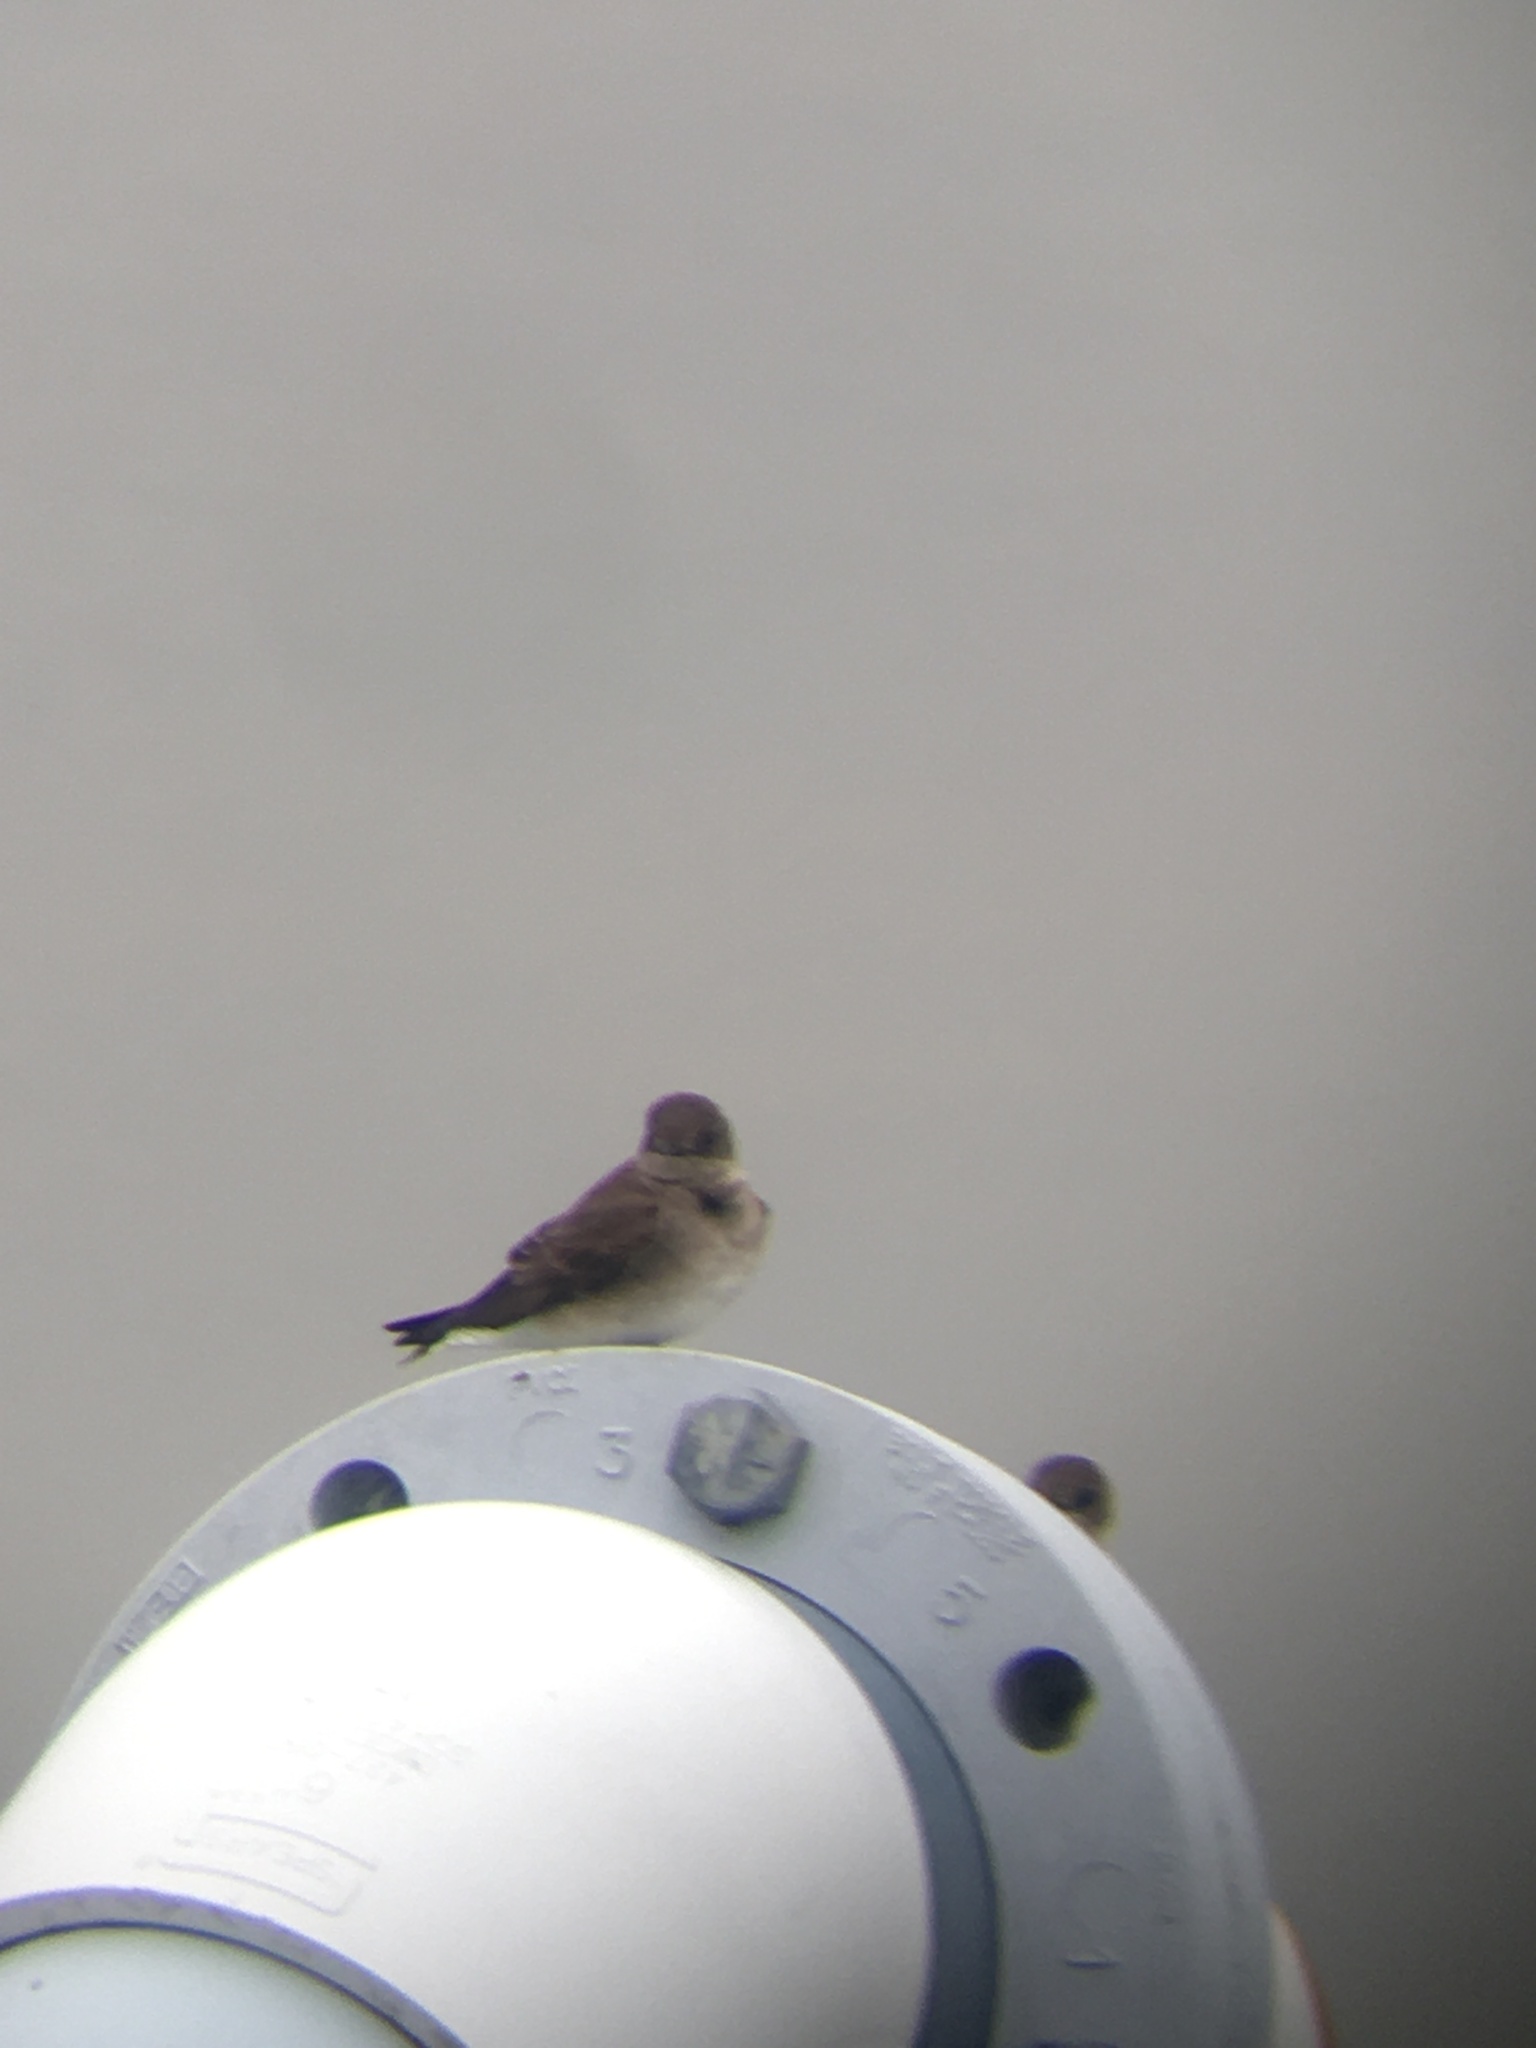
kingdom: Animalia
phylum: Chordata
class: Aves
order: Passeriformes
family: Hirundinidae
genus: Stelgidopteryx
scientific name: Stelgidopteryx serripennis
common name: Northern rough-winged swallow
